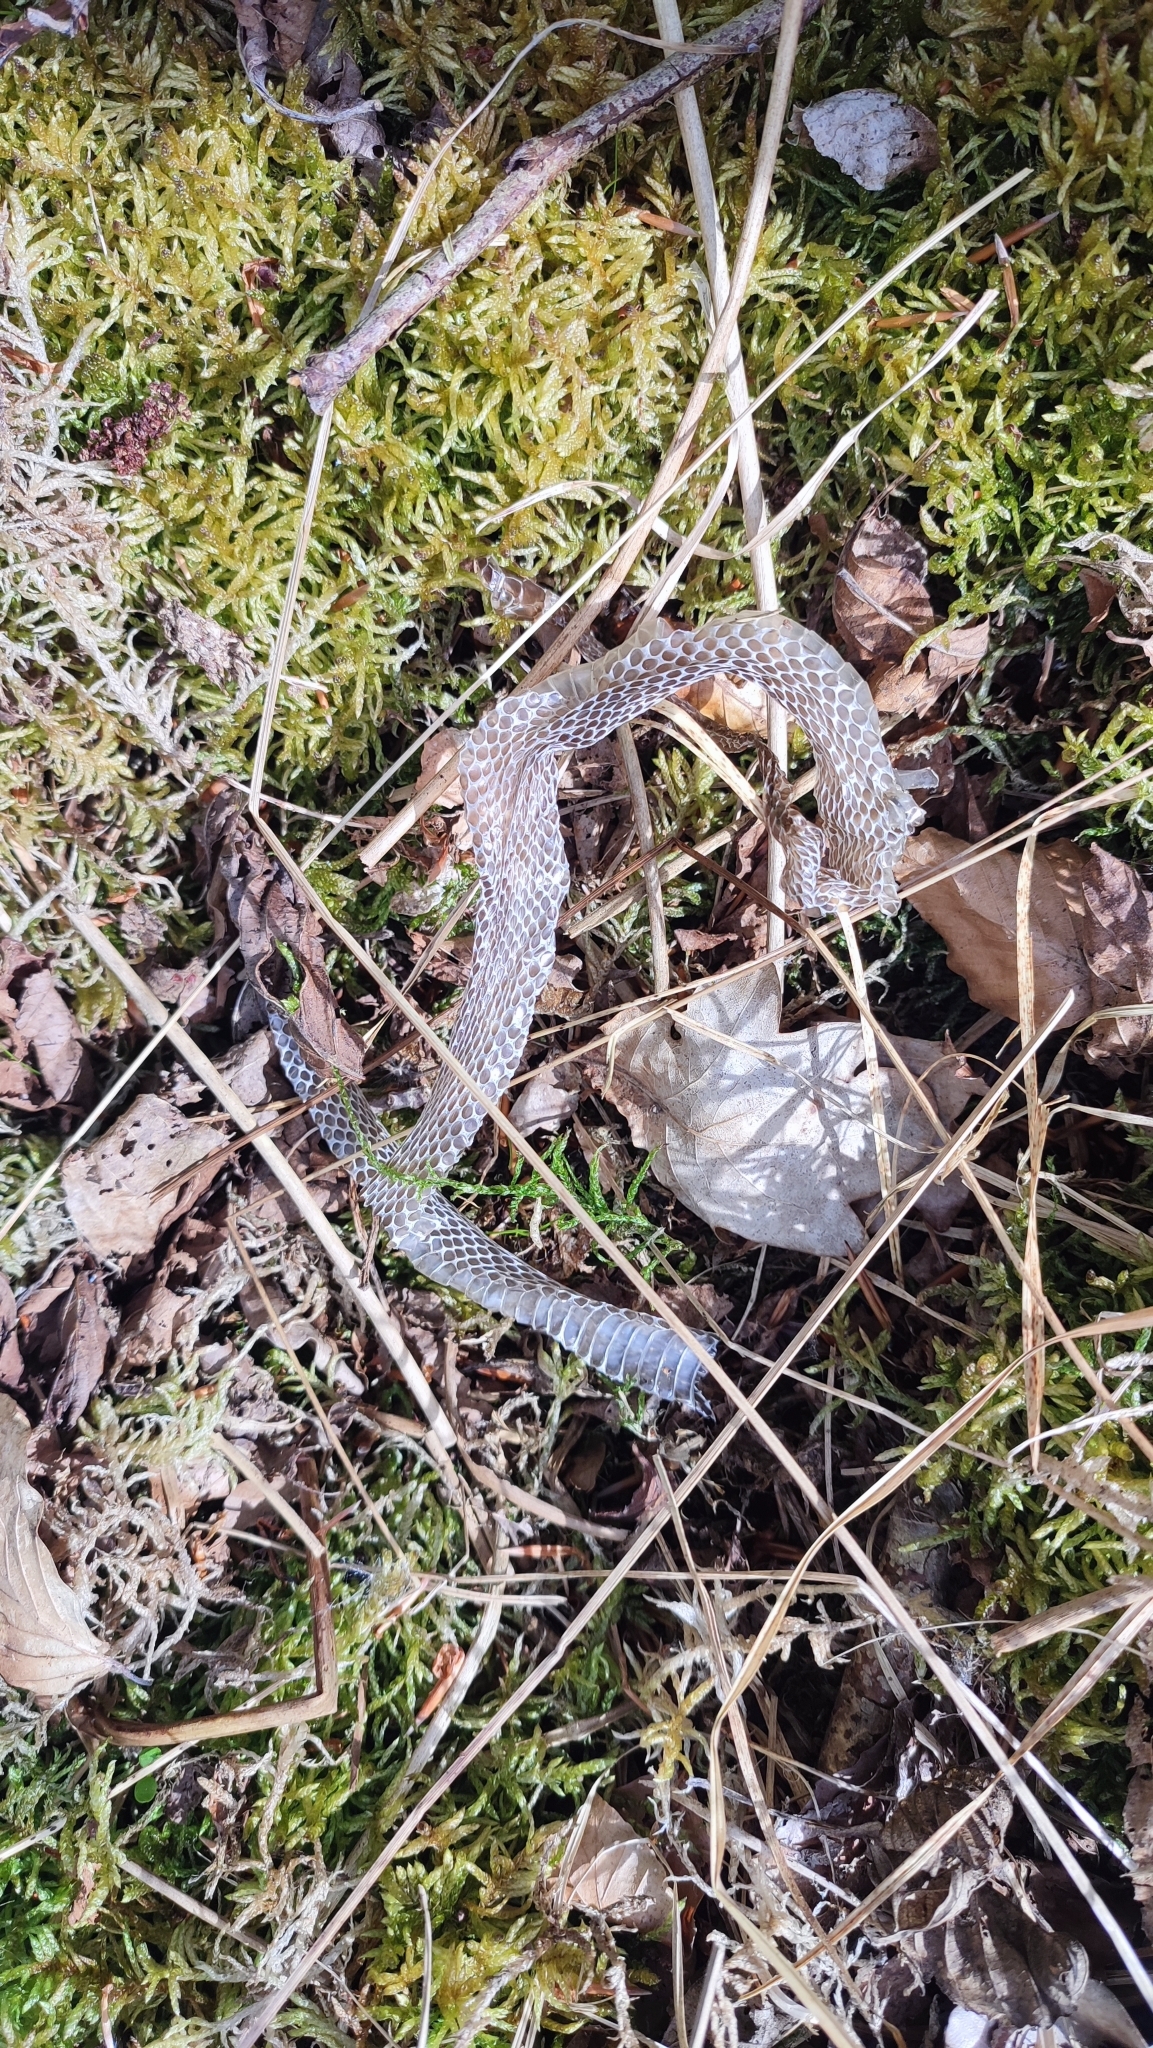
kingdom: Animalia
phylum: Chordata
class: Squamata
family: Colubridae
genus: Natrix
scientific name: Natrix natrix
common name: Grass snake
